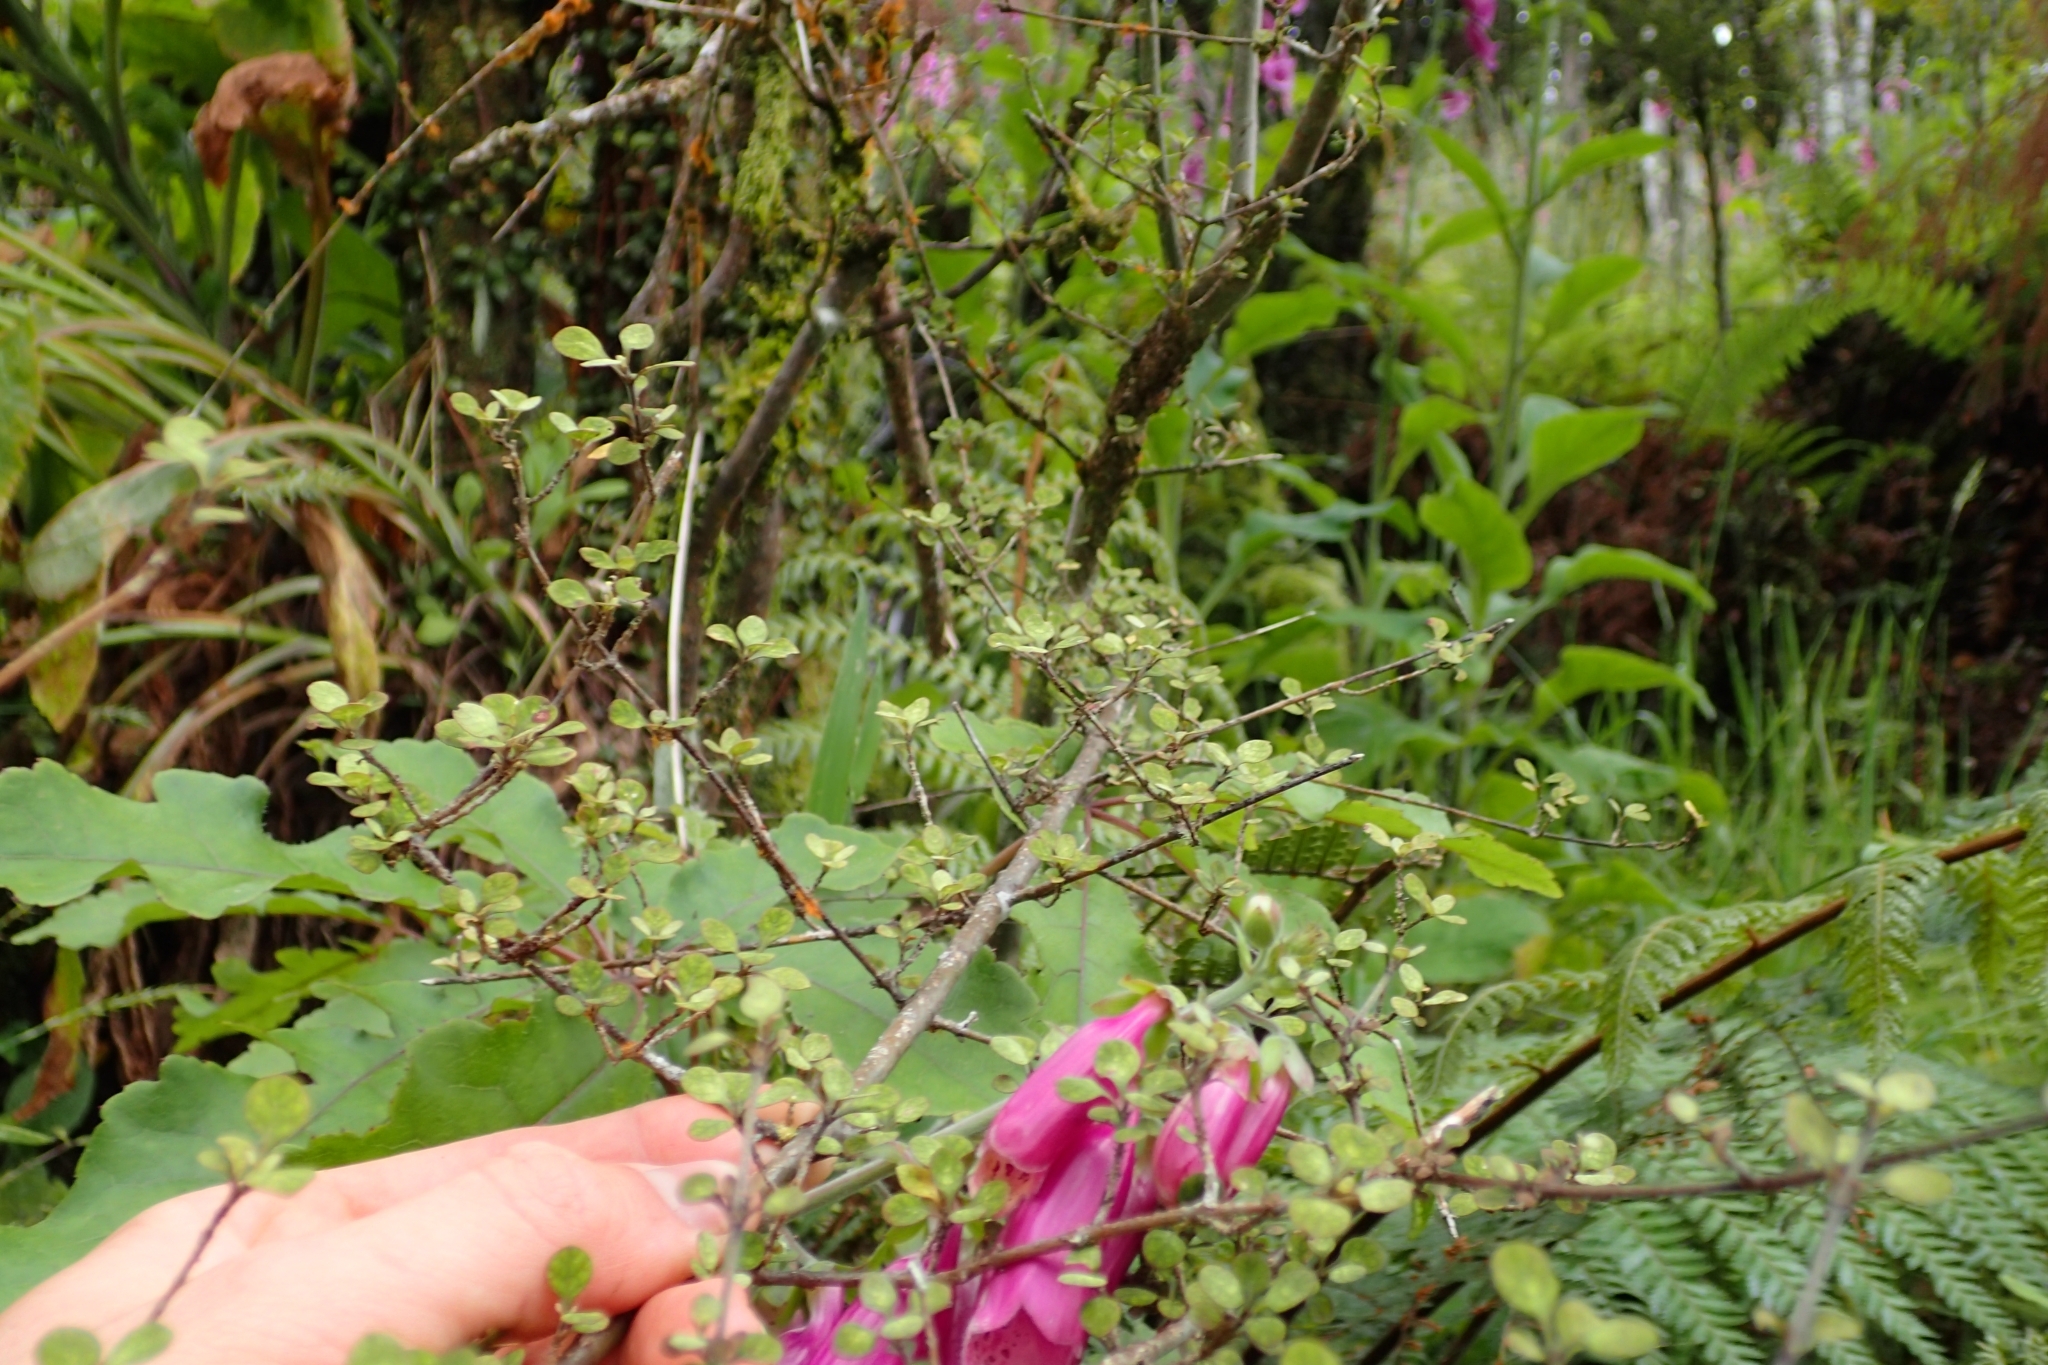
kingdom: Plantae
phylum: Tracheophyta
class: Magnoliopsida
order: Gentianales
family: Rubiaceae
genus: Coprosma
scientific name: Coprosma tenuicaulis
